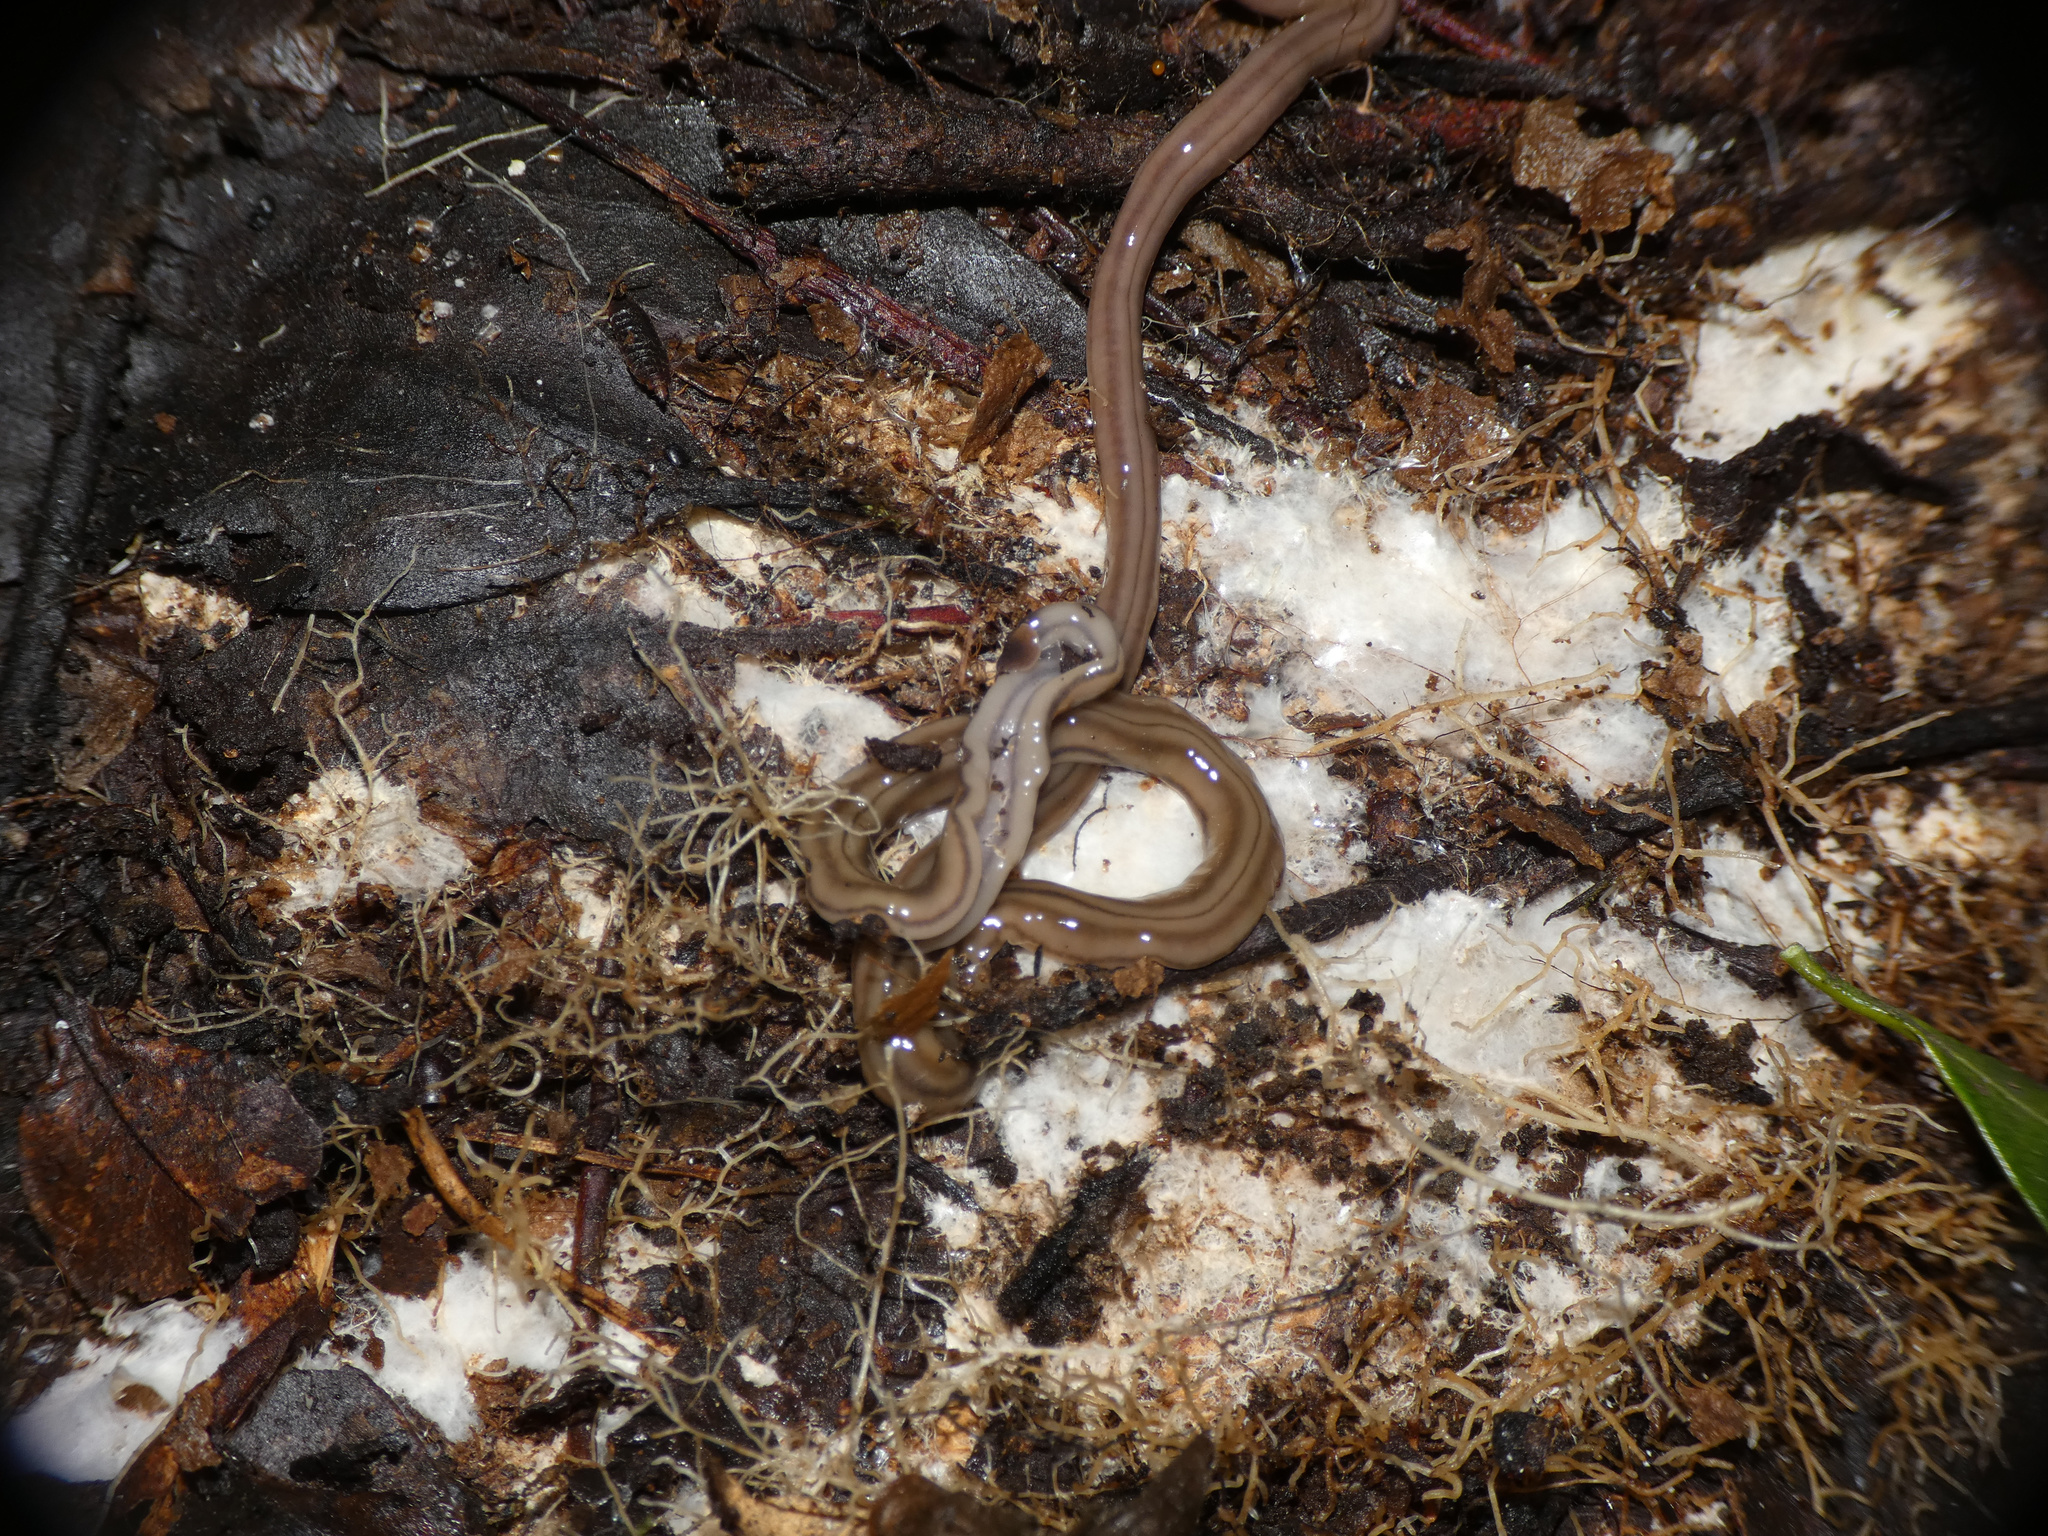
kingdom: Animalia
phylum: Platyhelminthes
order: Tricladida
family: Geoplanidae
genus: Bipalium
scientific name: Bipalium kewense
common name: Hammerhead flatworm
